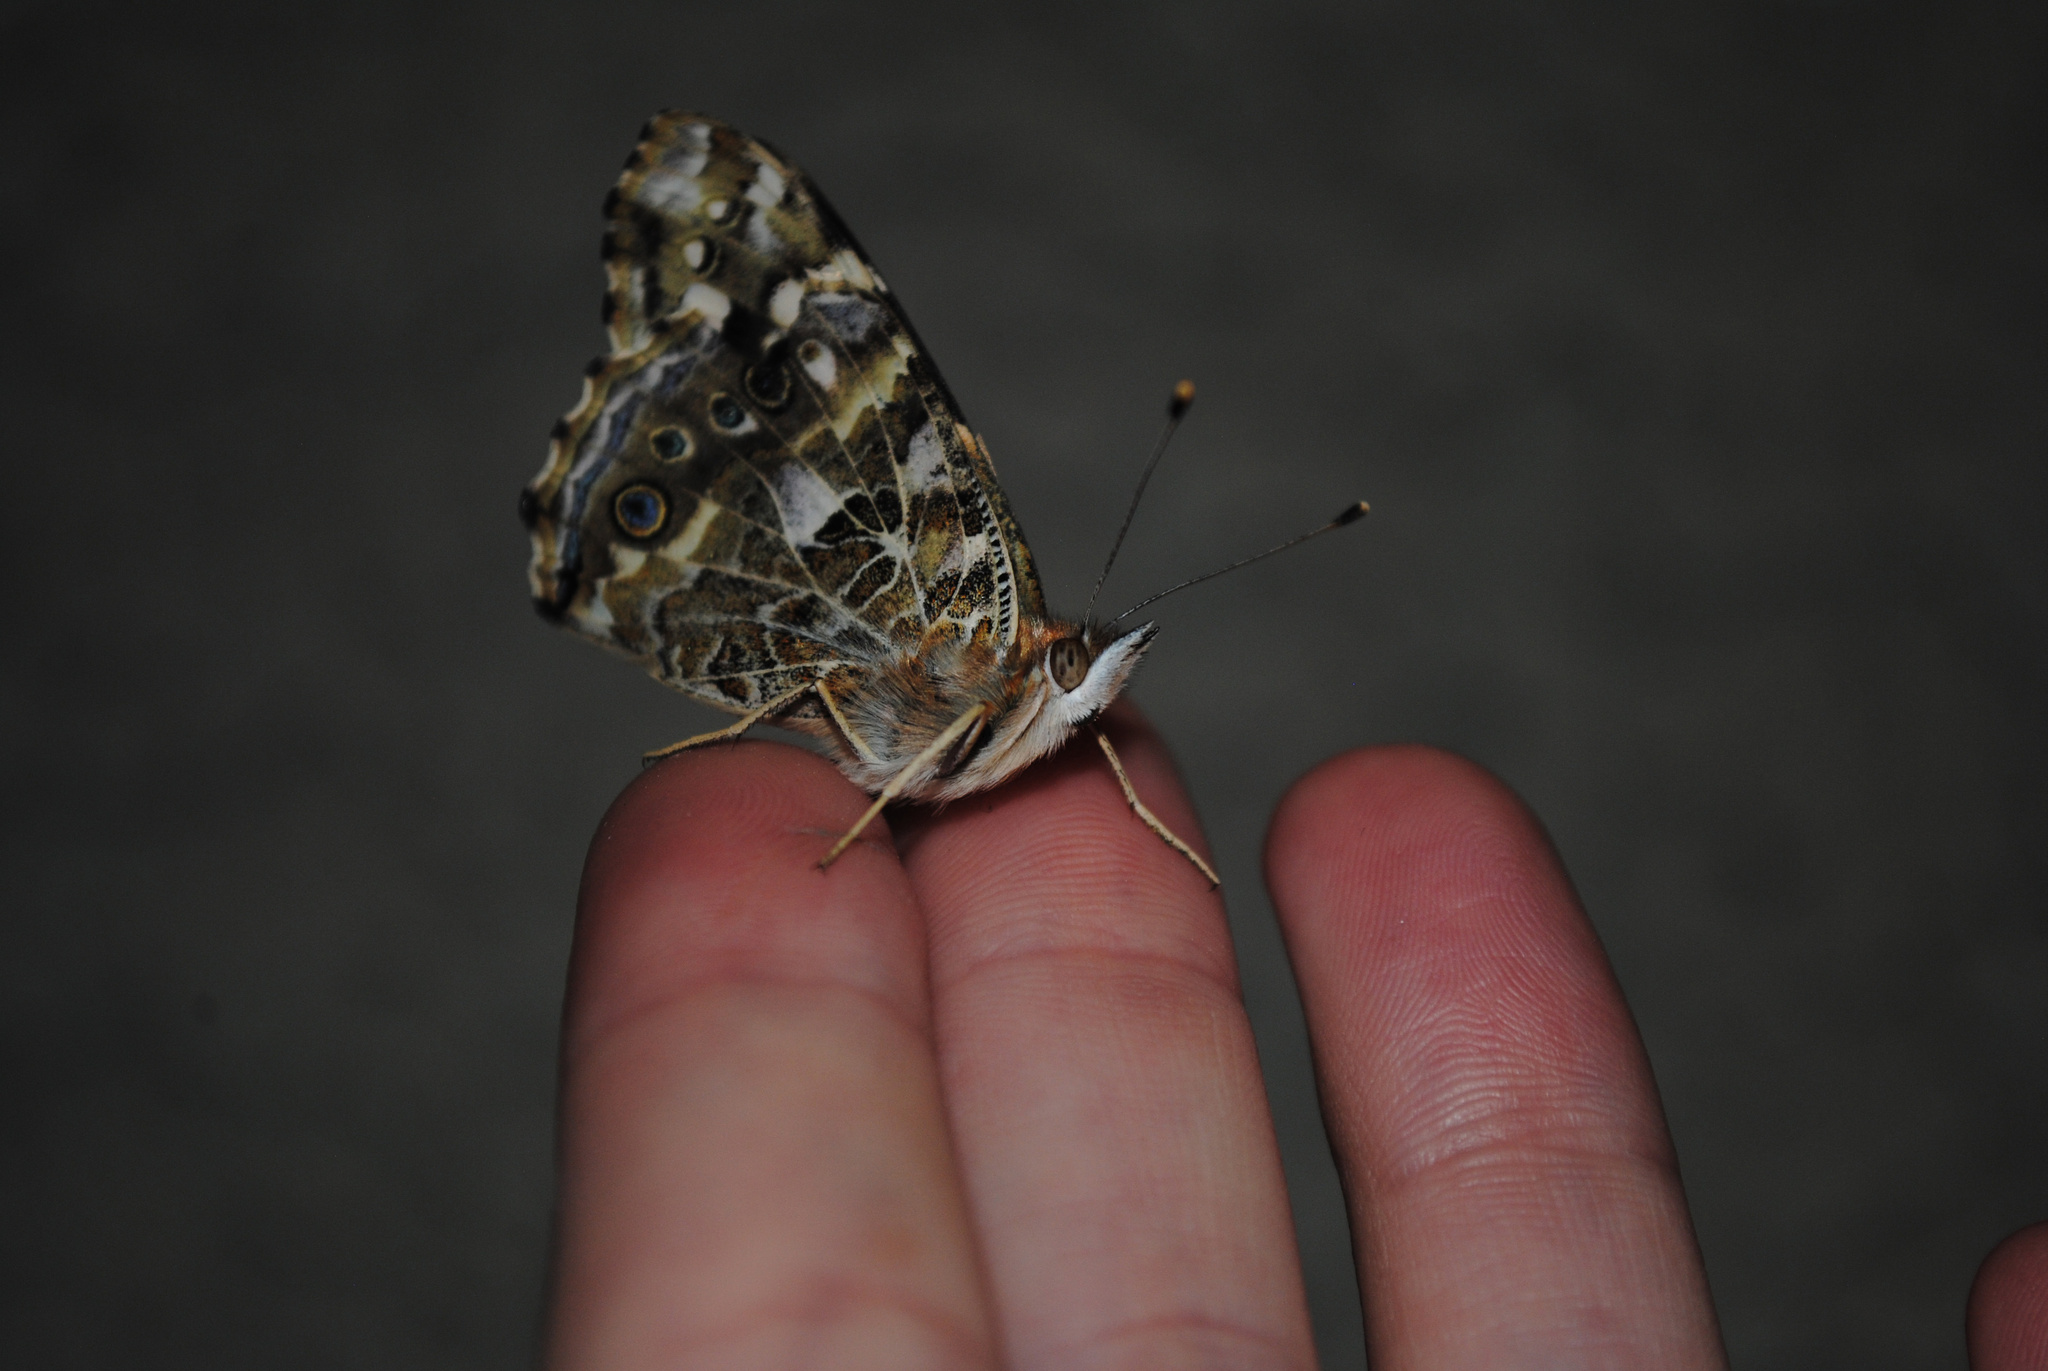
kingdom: Animalia
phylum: Arthropoda
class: Insecta
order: Lepidoptera
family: Nymphalidae
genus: Vanessa
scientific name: Vanessa cardui
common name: Painted lady
